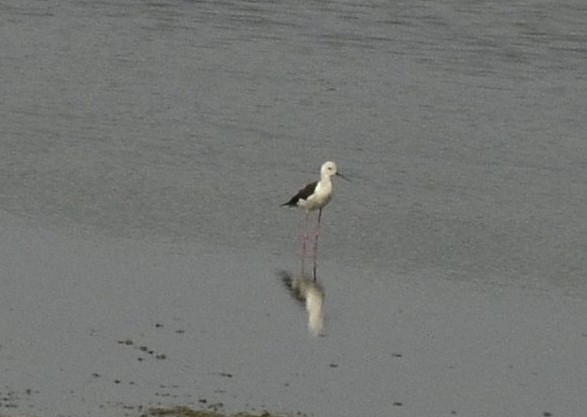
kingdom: Animalia
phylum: Chordata
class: Aves
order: Charadriiformes
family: Recurvirostridae
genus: Himantopus
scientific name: Himantopus himantopus
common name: Black-winged stilt
